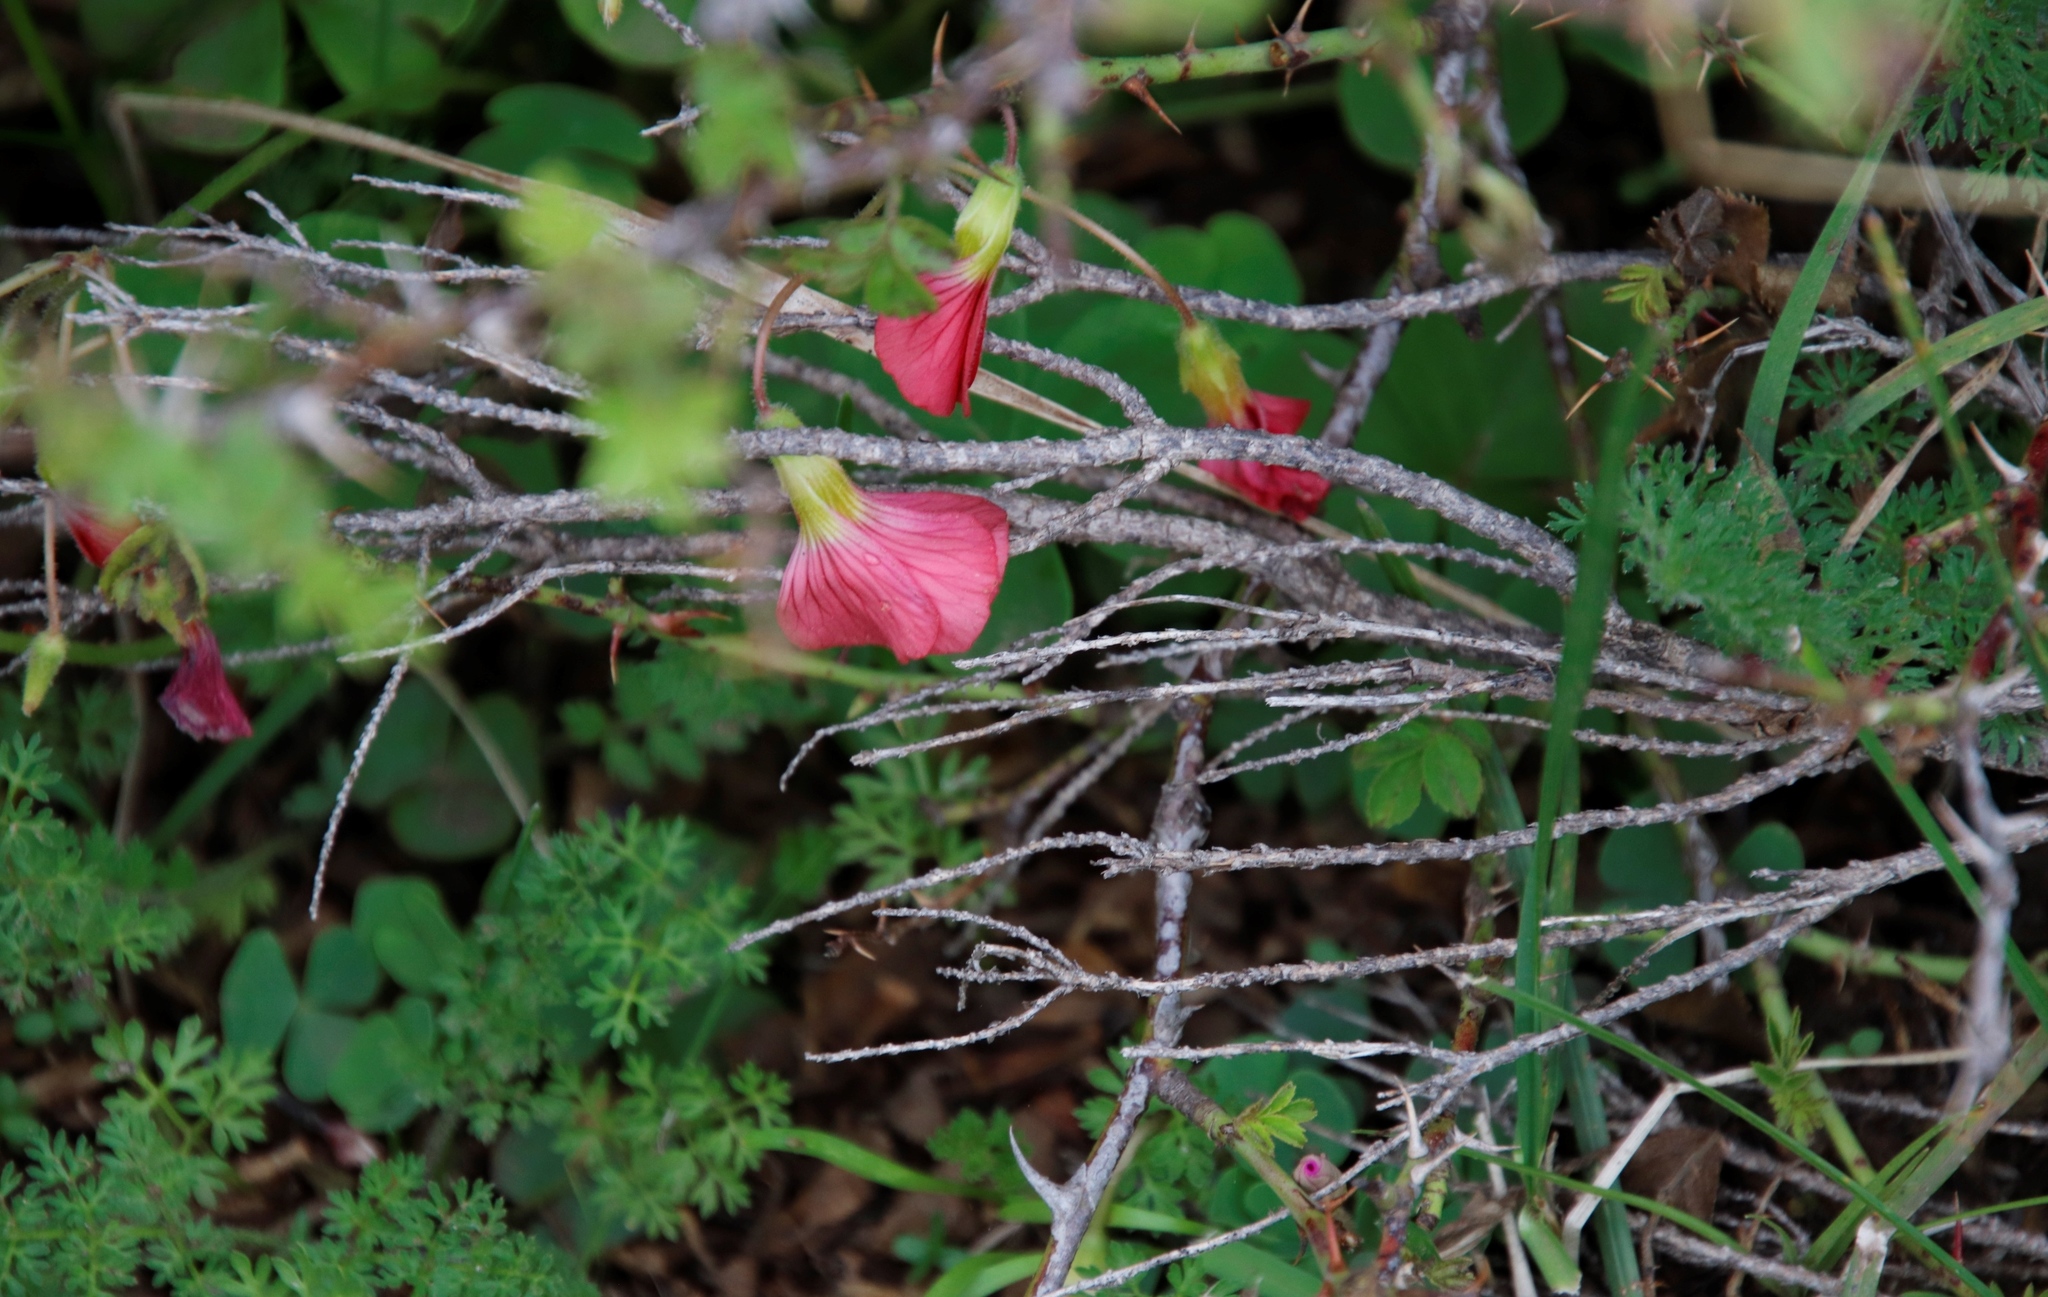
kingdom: Plantae
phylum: Tracheophyta
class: Magnoliopsida
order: Oxalidales
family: Oxalidaceae
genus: Oxalis
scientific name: Oxalis bowiei
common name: Bowie's wood-sorrel
